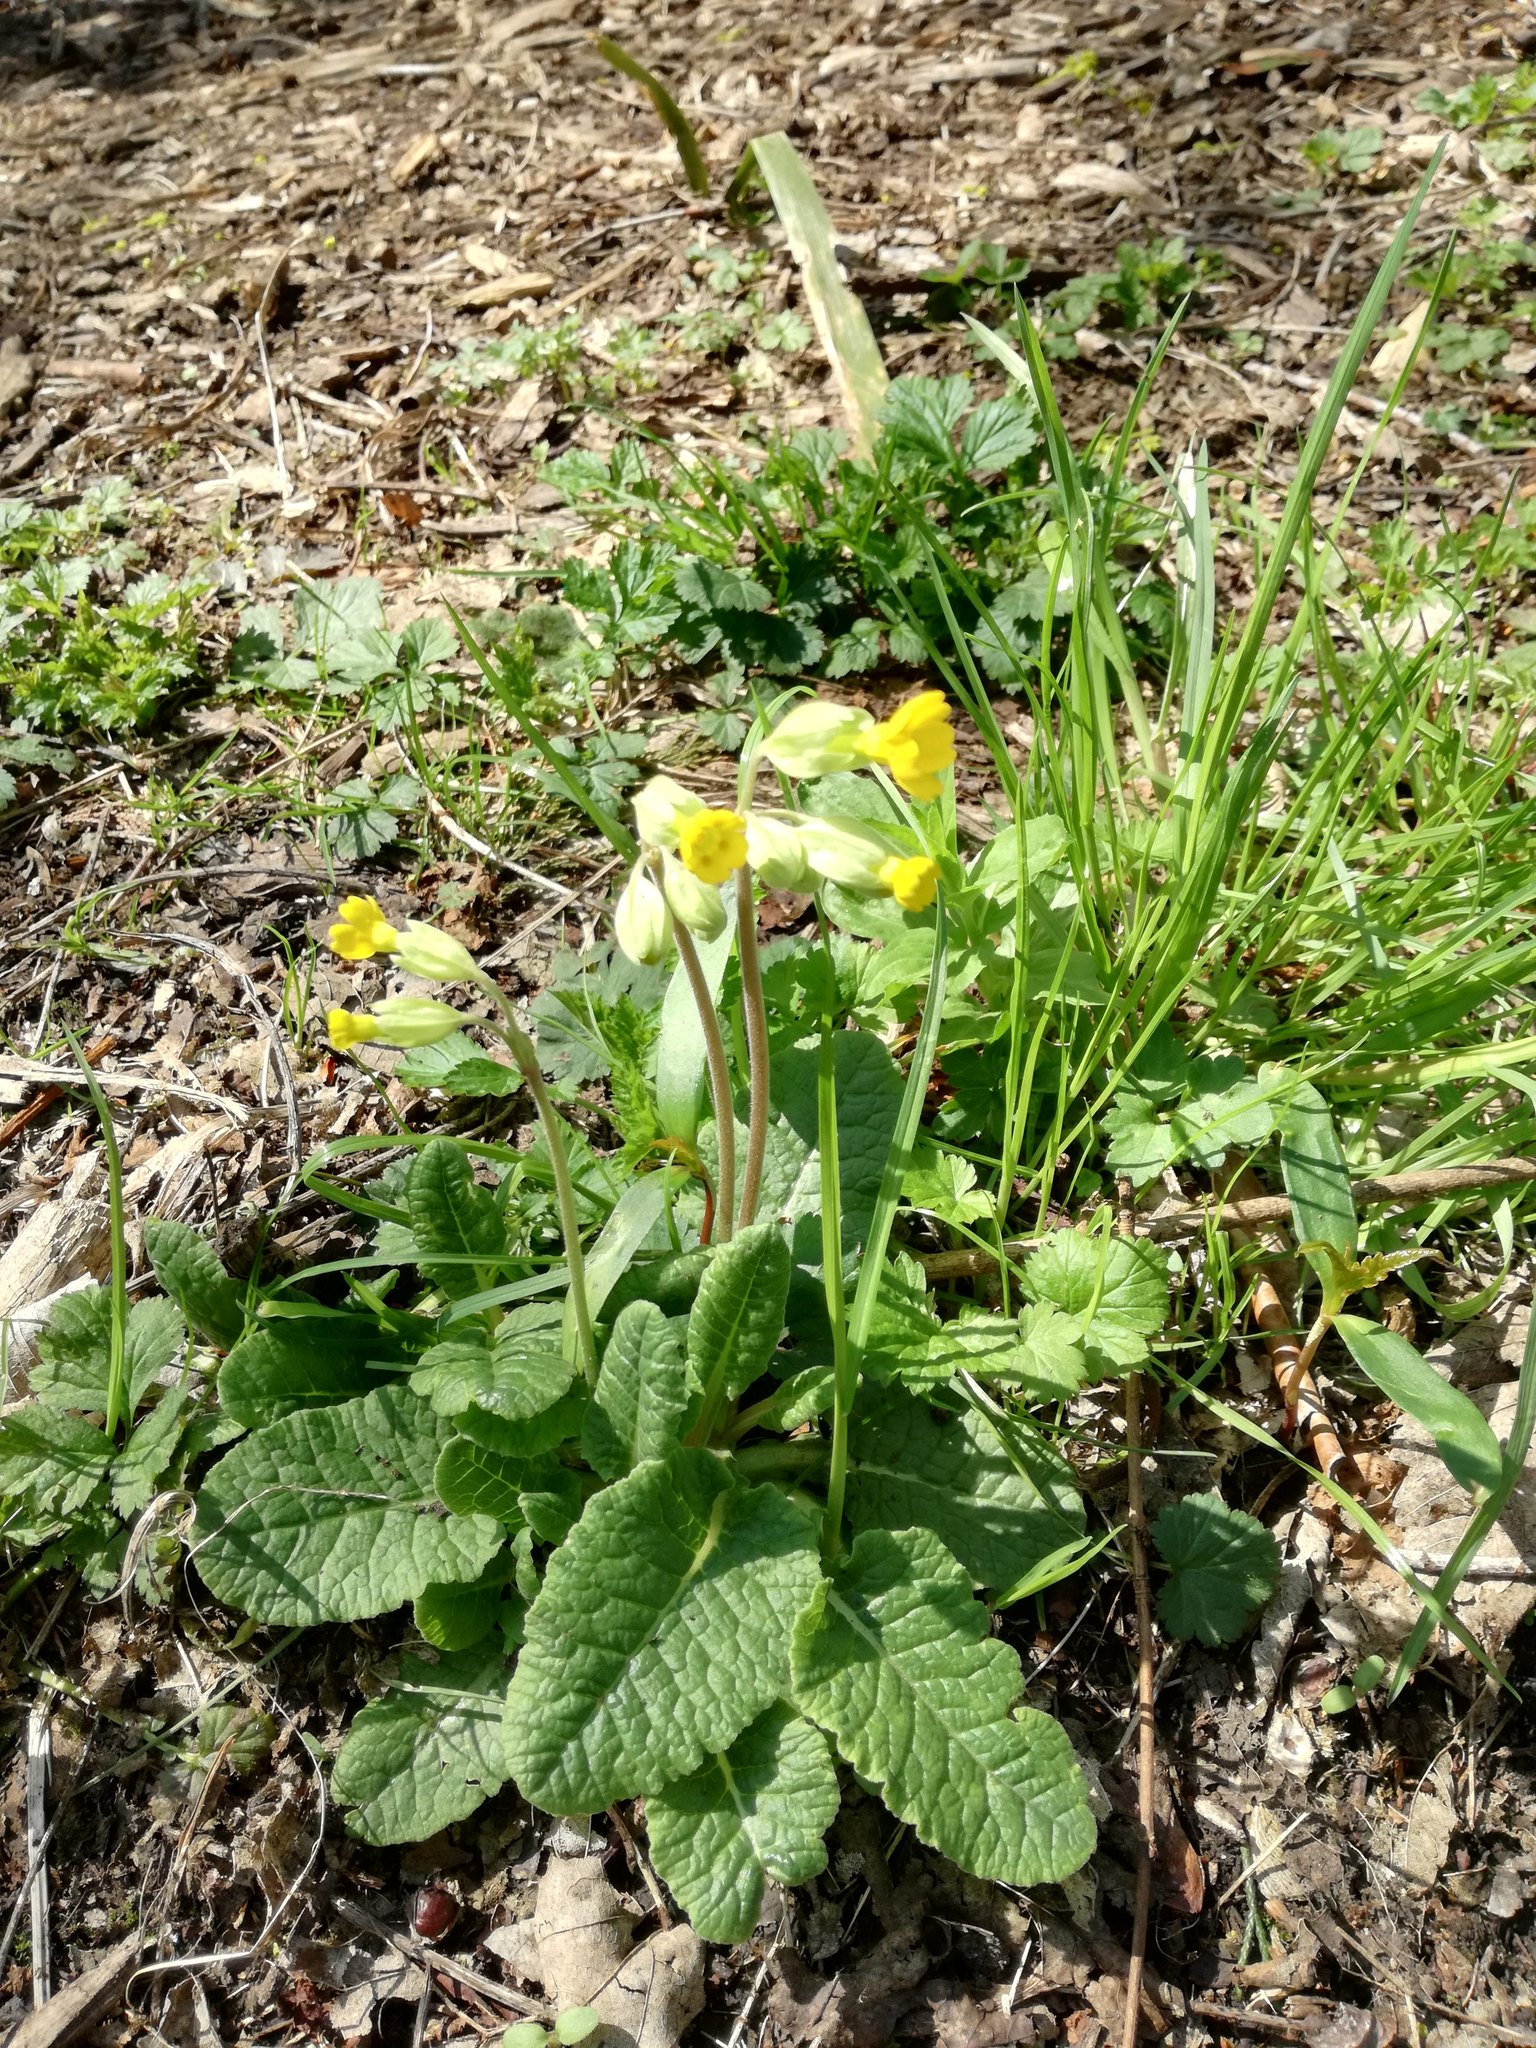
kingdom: Plantae
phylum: Tracheophyta
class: Magnoliopsida
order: Ericales
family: Primulaceae
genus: Primula
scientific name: Primula veris
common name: Cowslip
